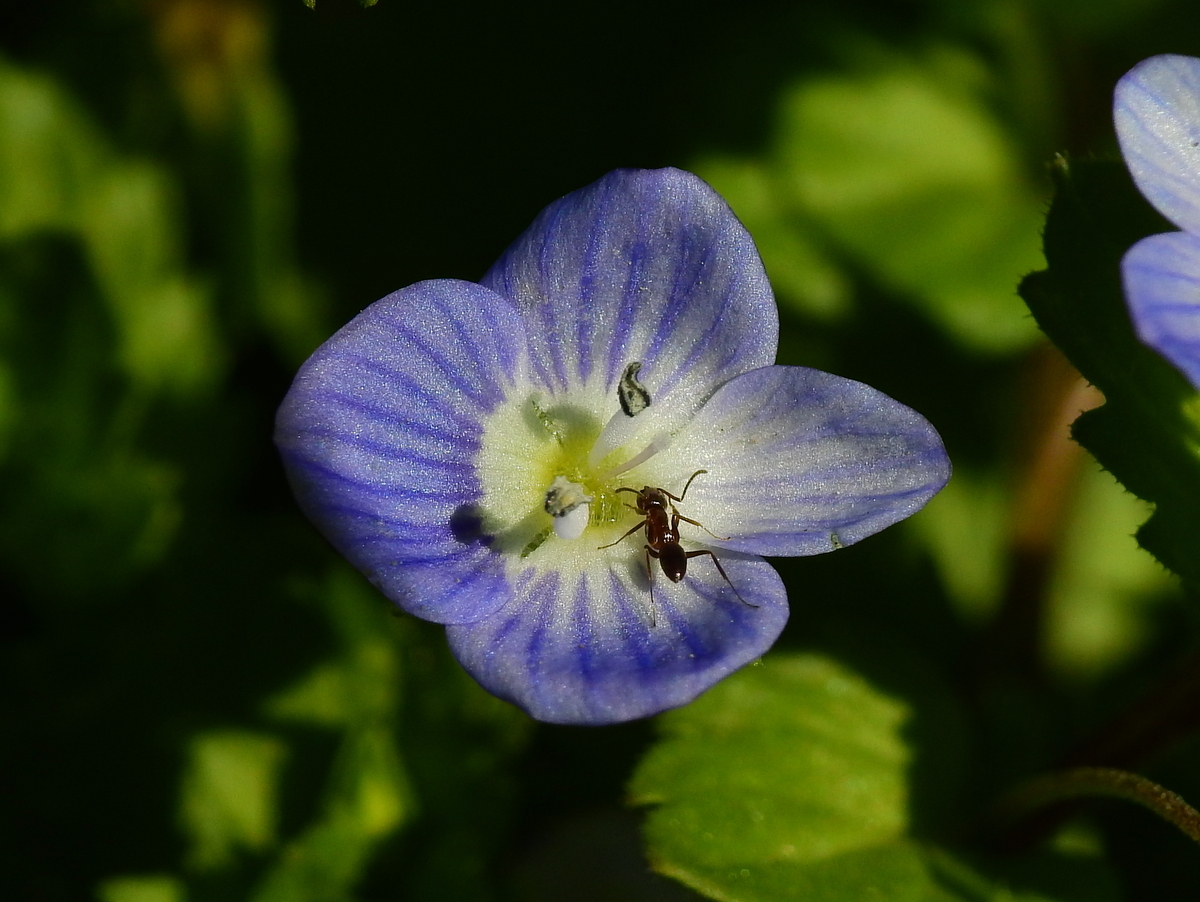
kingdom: Plantae
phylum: Tracheophyta
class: Magnoliopsida
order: Lamiales
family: Plantaginaceae
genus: Veronica
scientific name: Veronica persica
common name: Common field-speedwell
